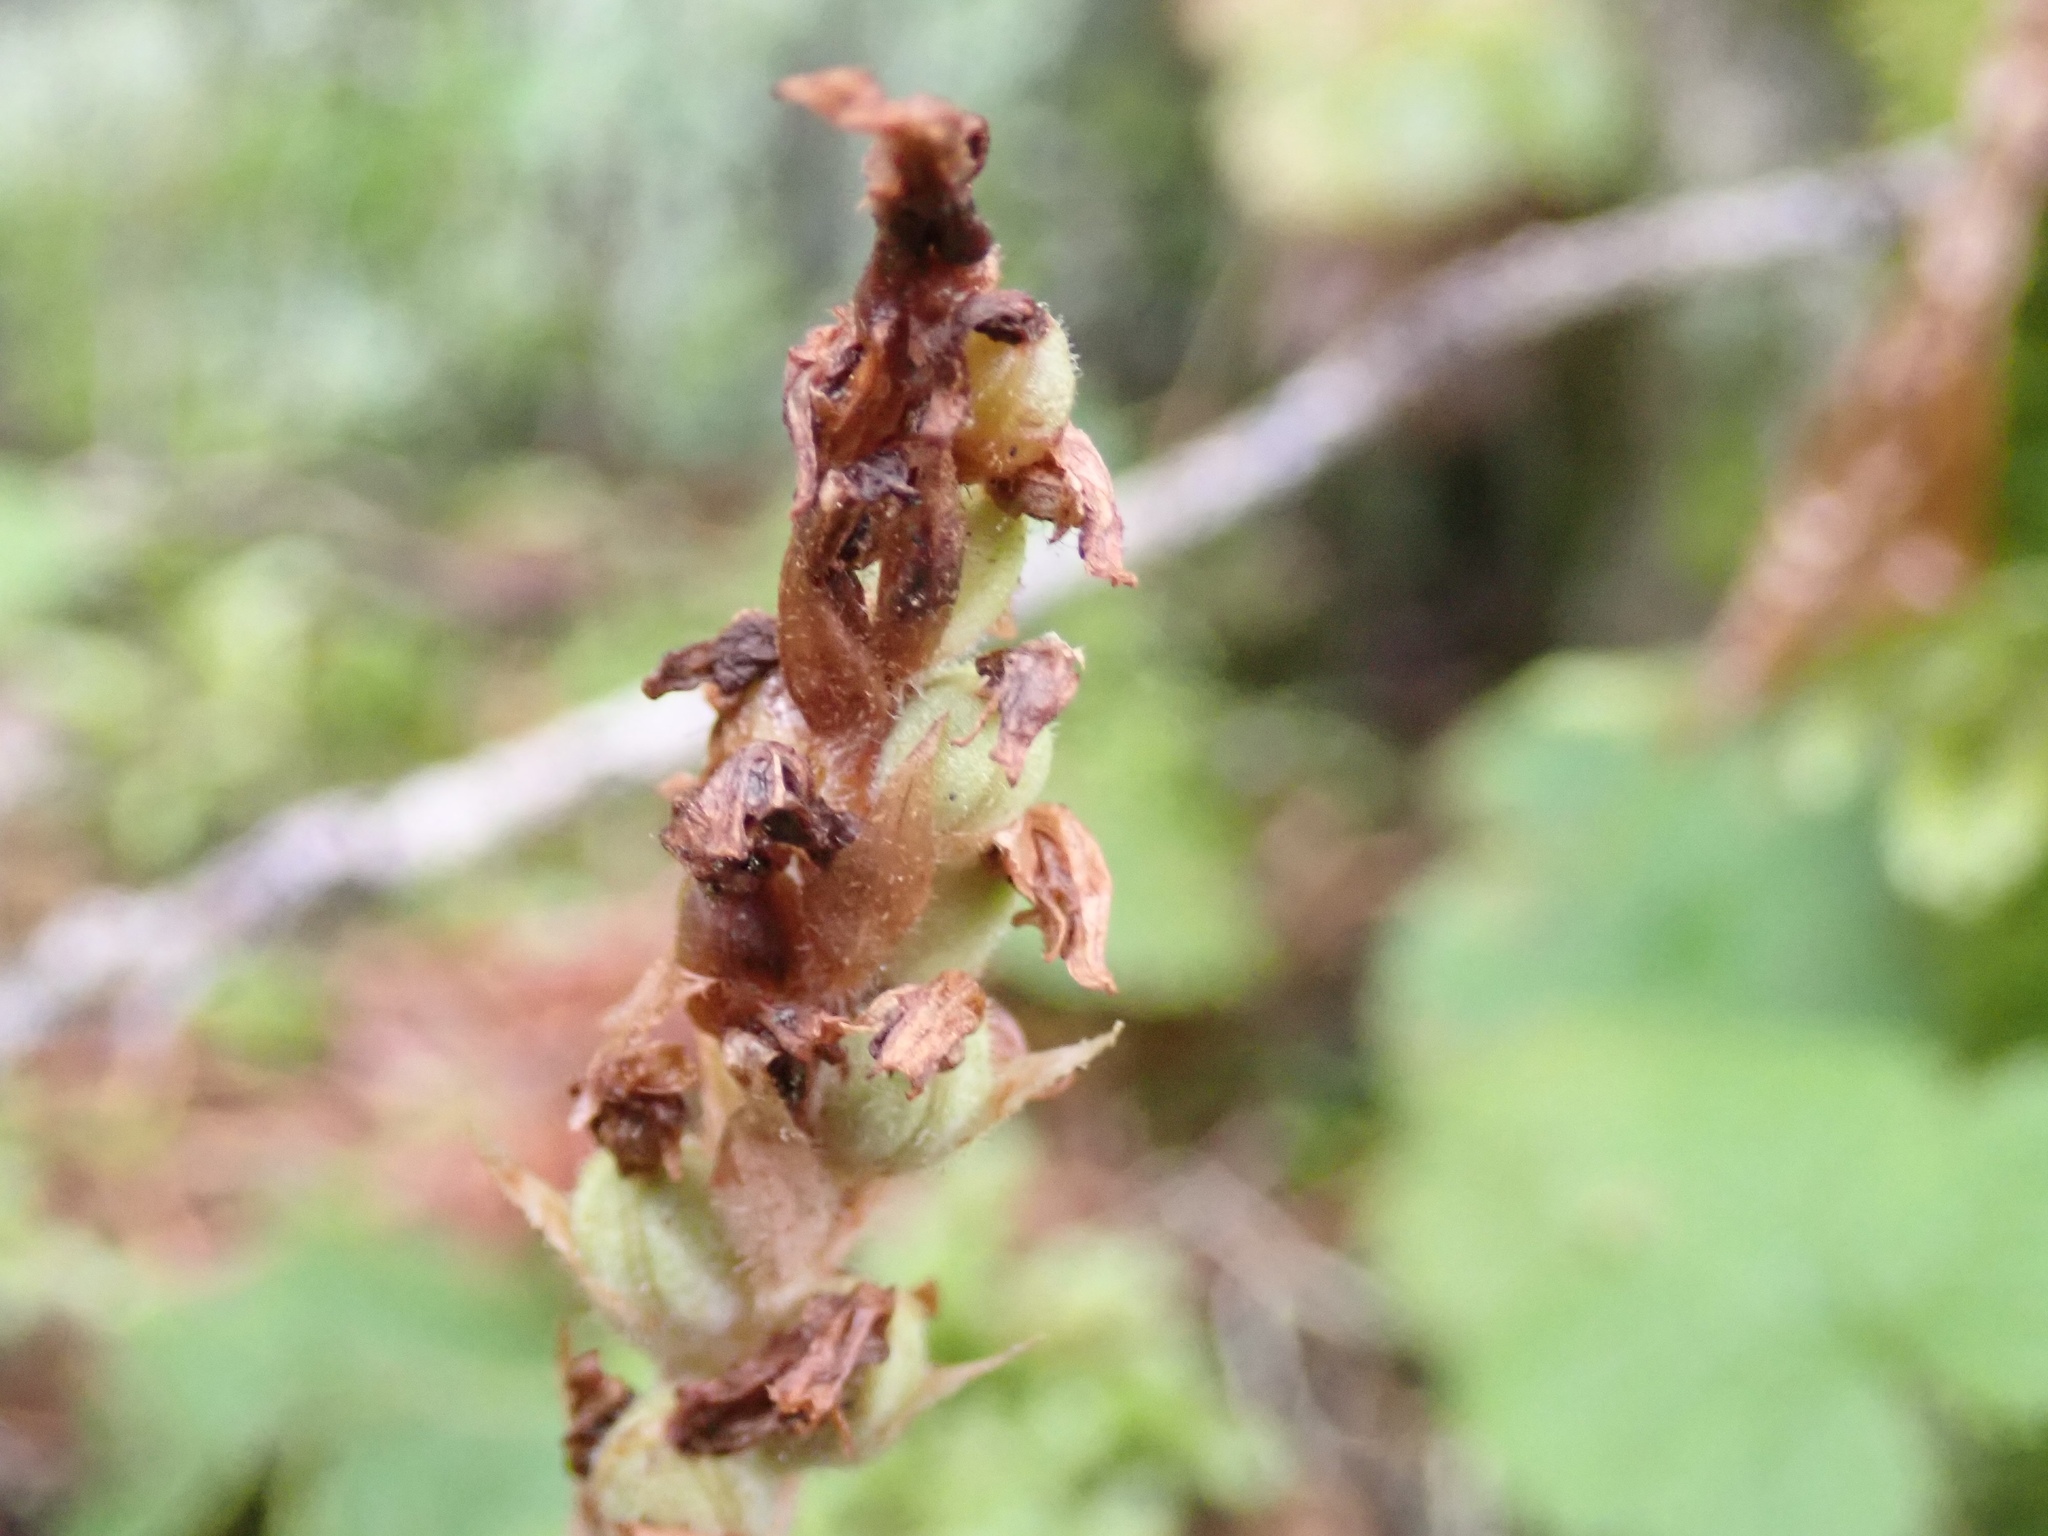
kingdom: Plantae
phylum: Tracheophyta
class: Liliopsida
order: Asparagales
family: Orchidaceae
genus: Goodyera
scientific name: Goodyera oblongifolia
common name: Giant rattlesnake-plantain
